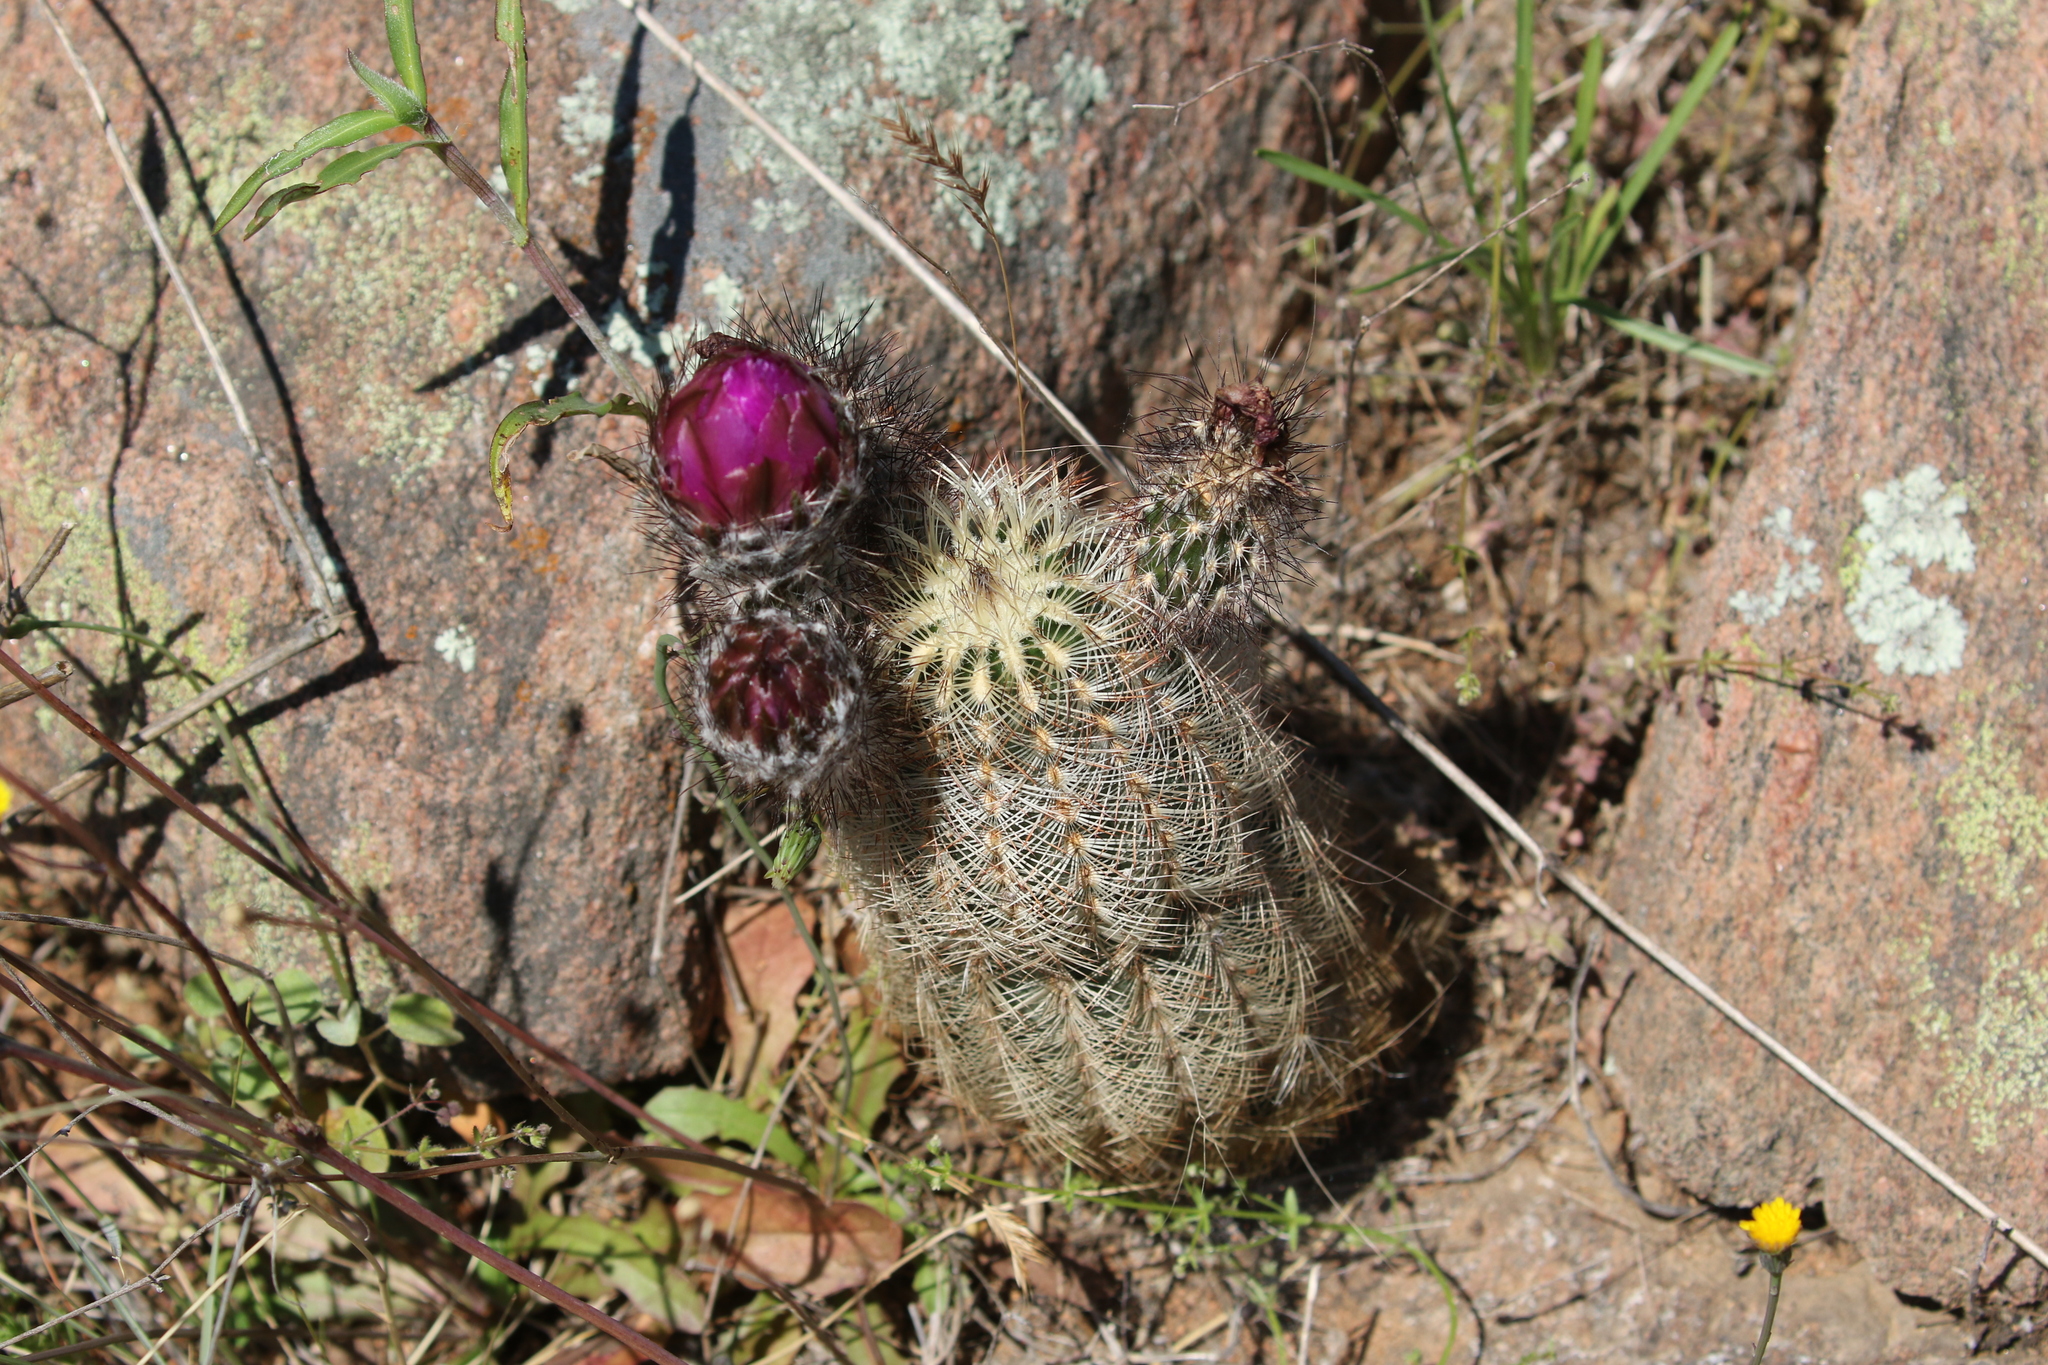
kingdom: Plantae
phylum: Tracheophyta
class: Magnoliopsida
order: Caryophyllales
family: Cactaceae
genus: Echinocereus
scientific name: Echinocereus reichenbachii
